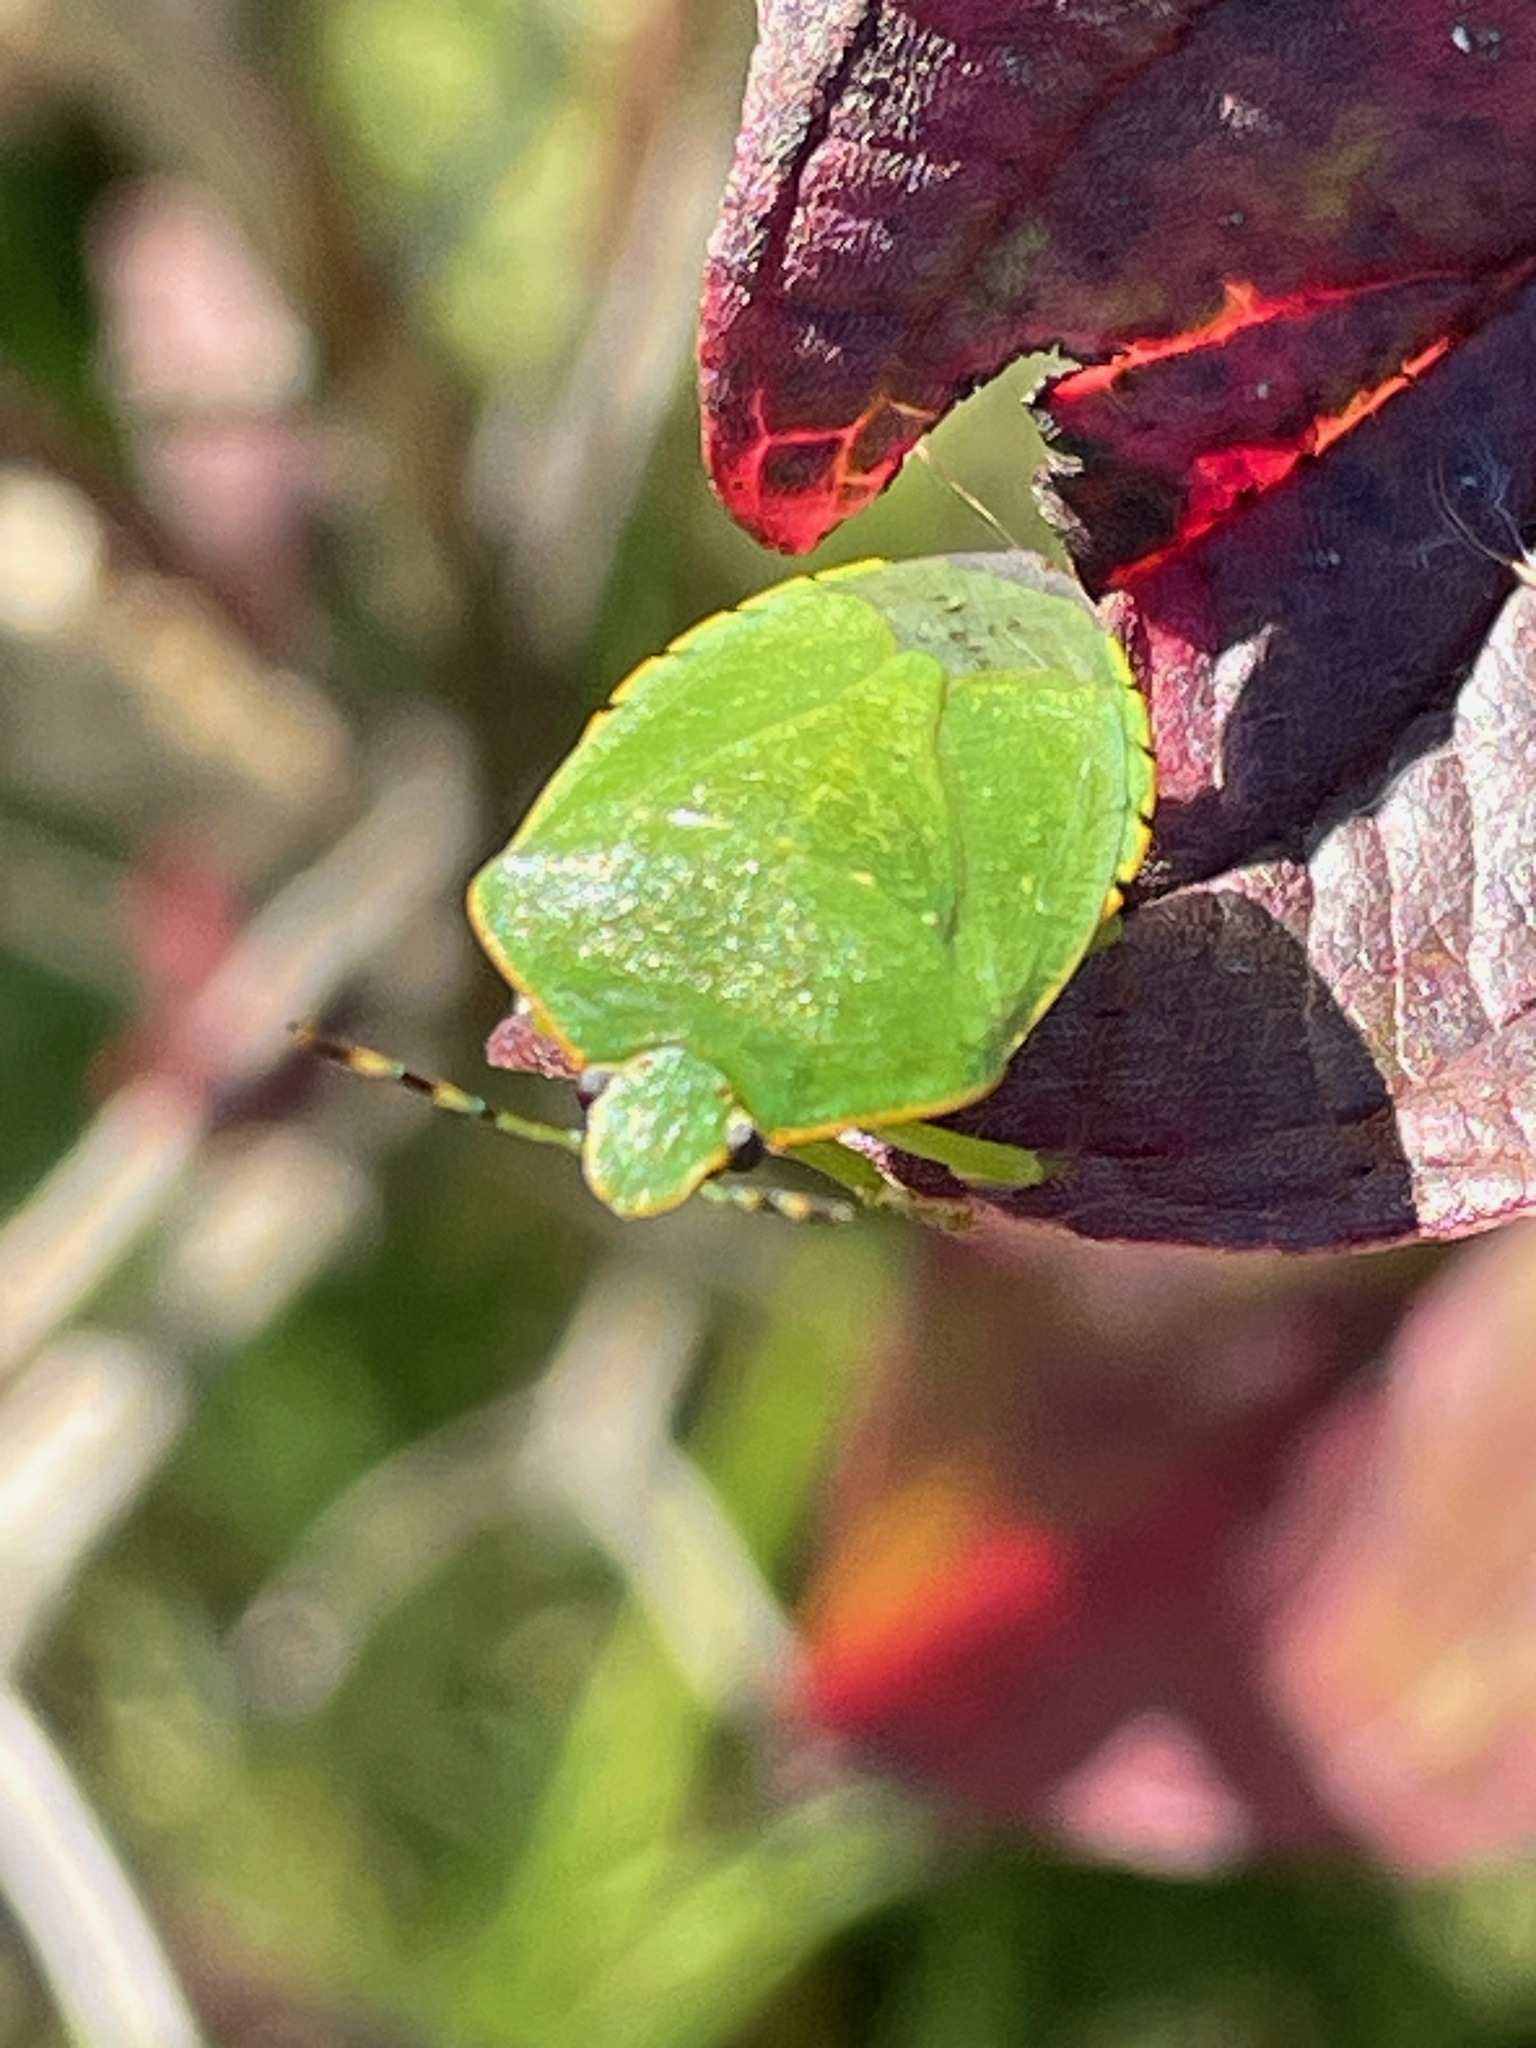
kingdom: Animalia
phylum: Arthropoda
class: Insecta
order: Hemiptera
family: Pentatomidae
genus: Chinavia
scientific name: Chinavia hilaris
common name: Green stink bug
